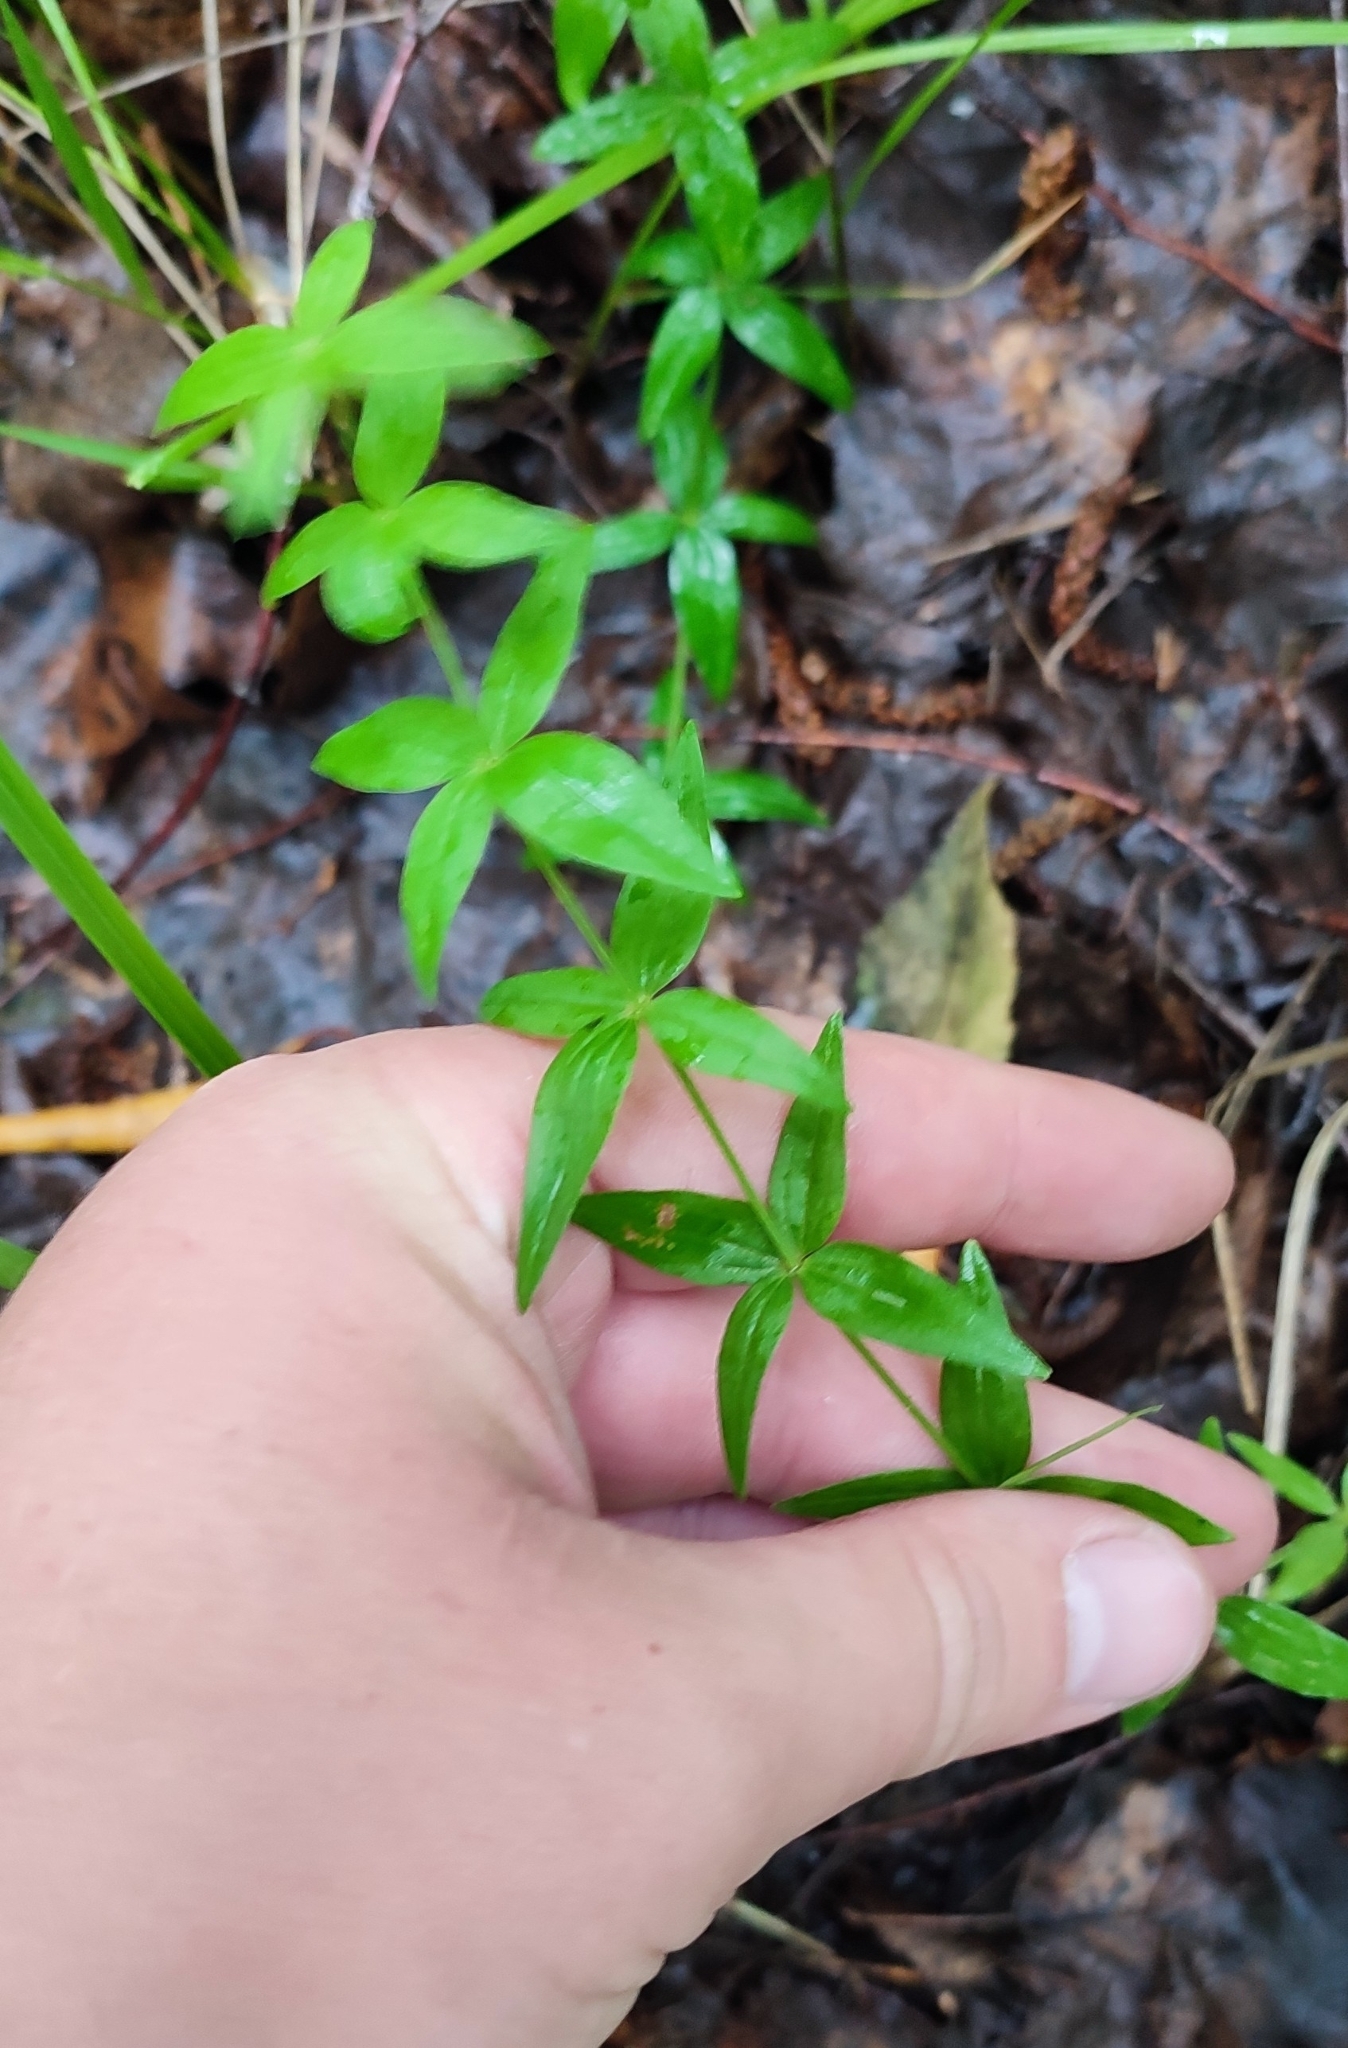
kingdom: Plantae
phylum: Tracheophyta
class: Magnoliopsida
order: Gentianales
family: Rubiaceae
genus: Galium
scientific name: Galium boreale
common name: Northern bedstraw
